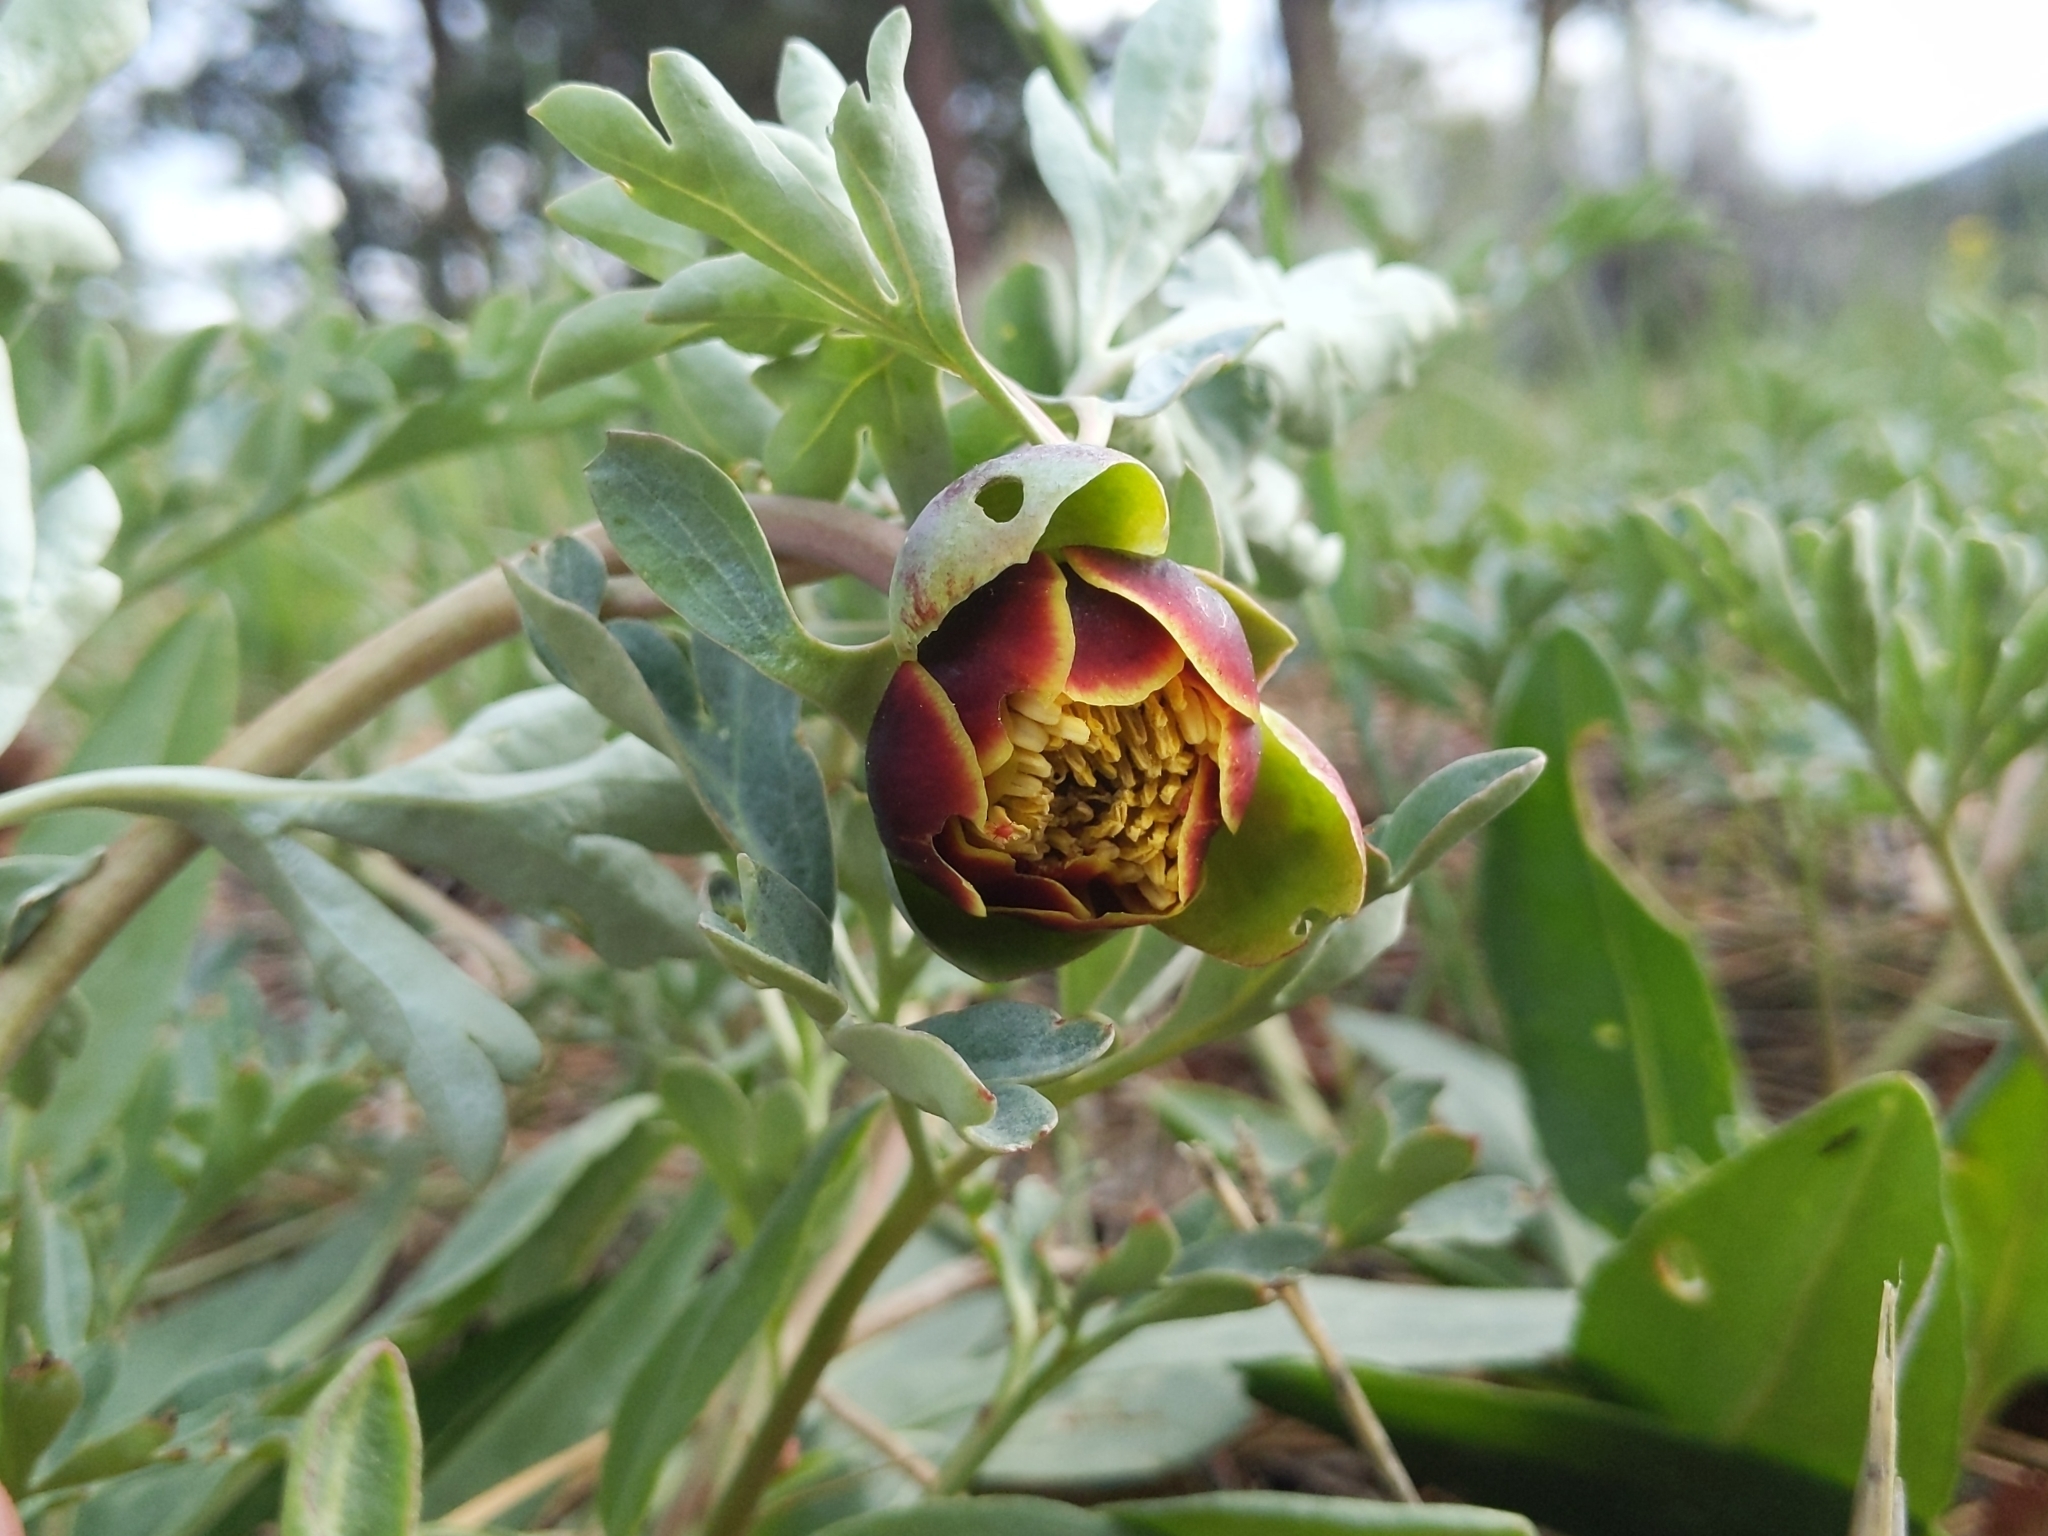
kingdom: Plantae
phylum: Tracheophyta
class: Magnoliopsida
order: Saxifragales
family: Paeoniaceae
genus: Paeonia
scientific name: Paeonia brownii
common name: Brown's peony
